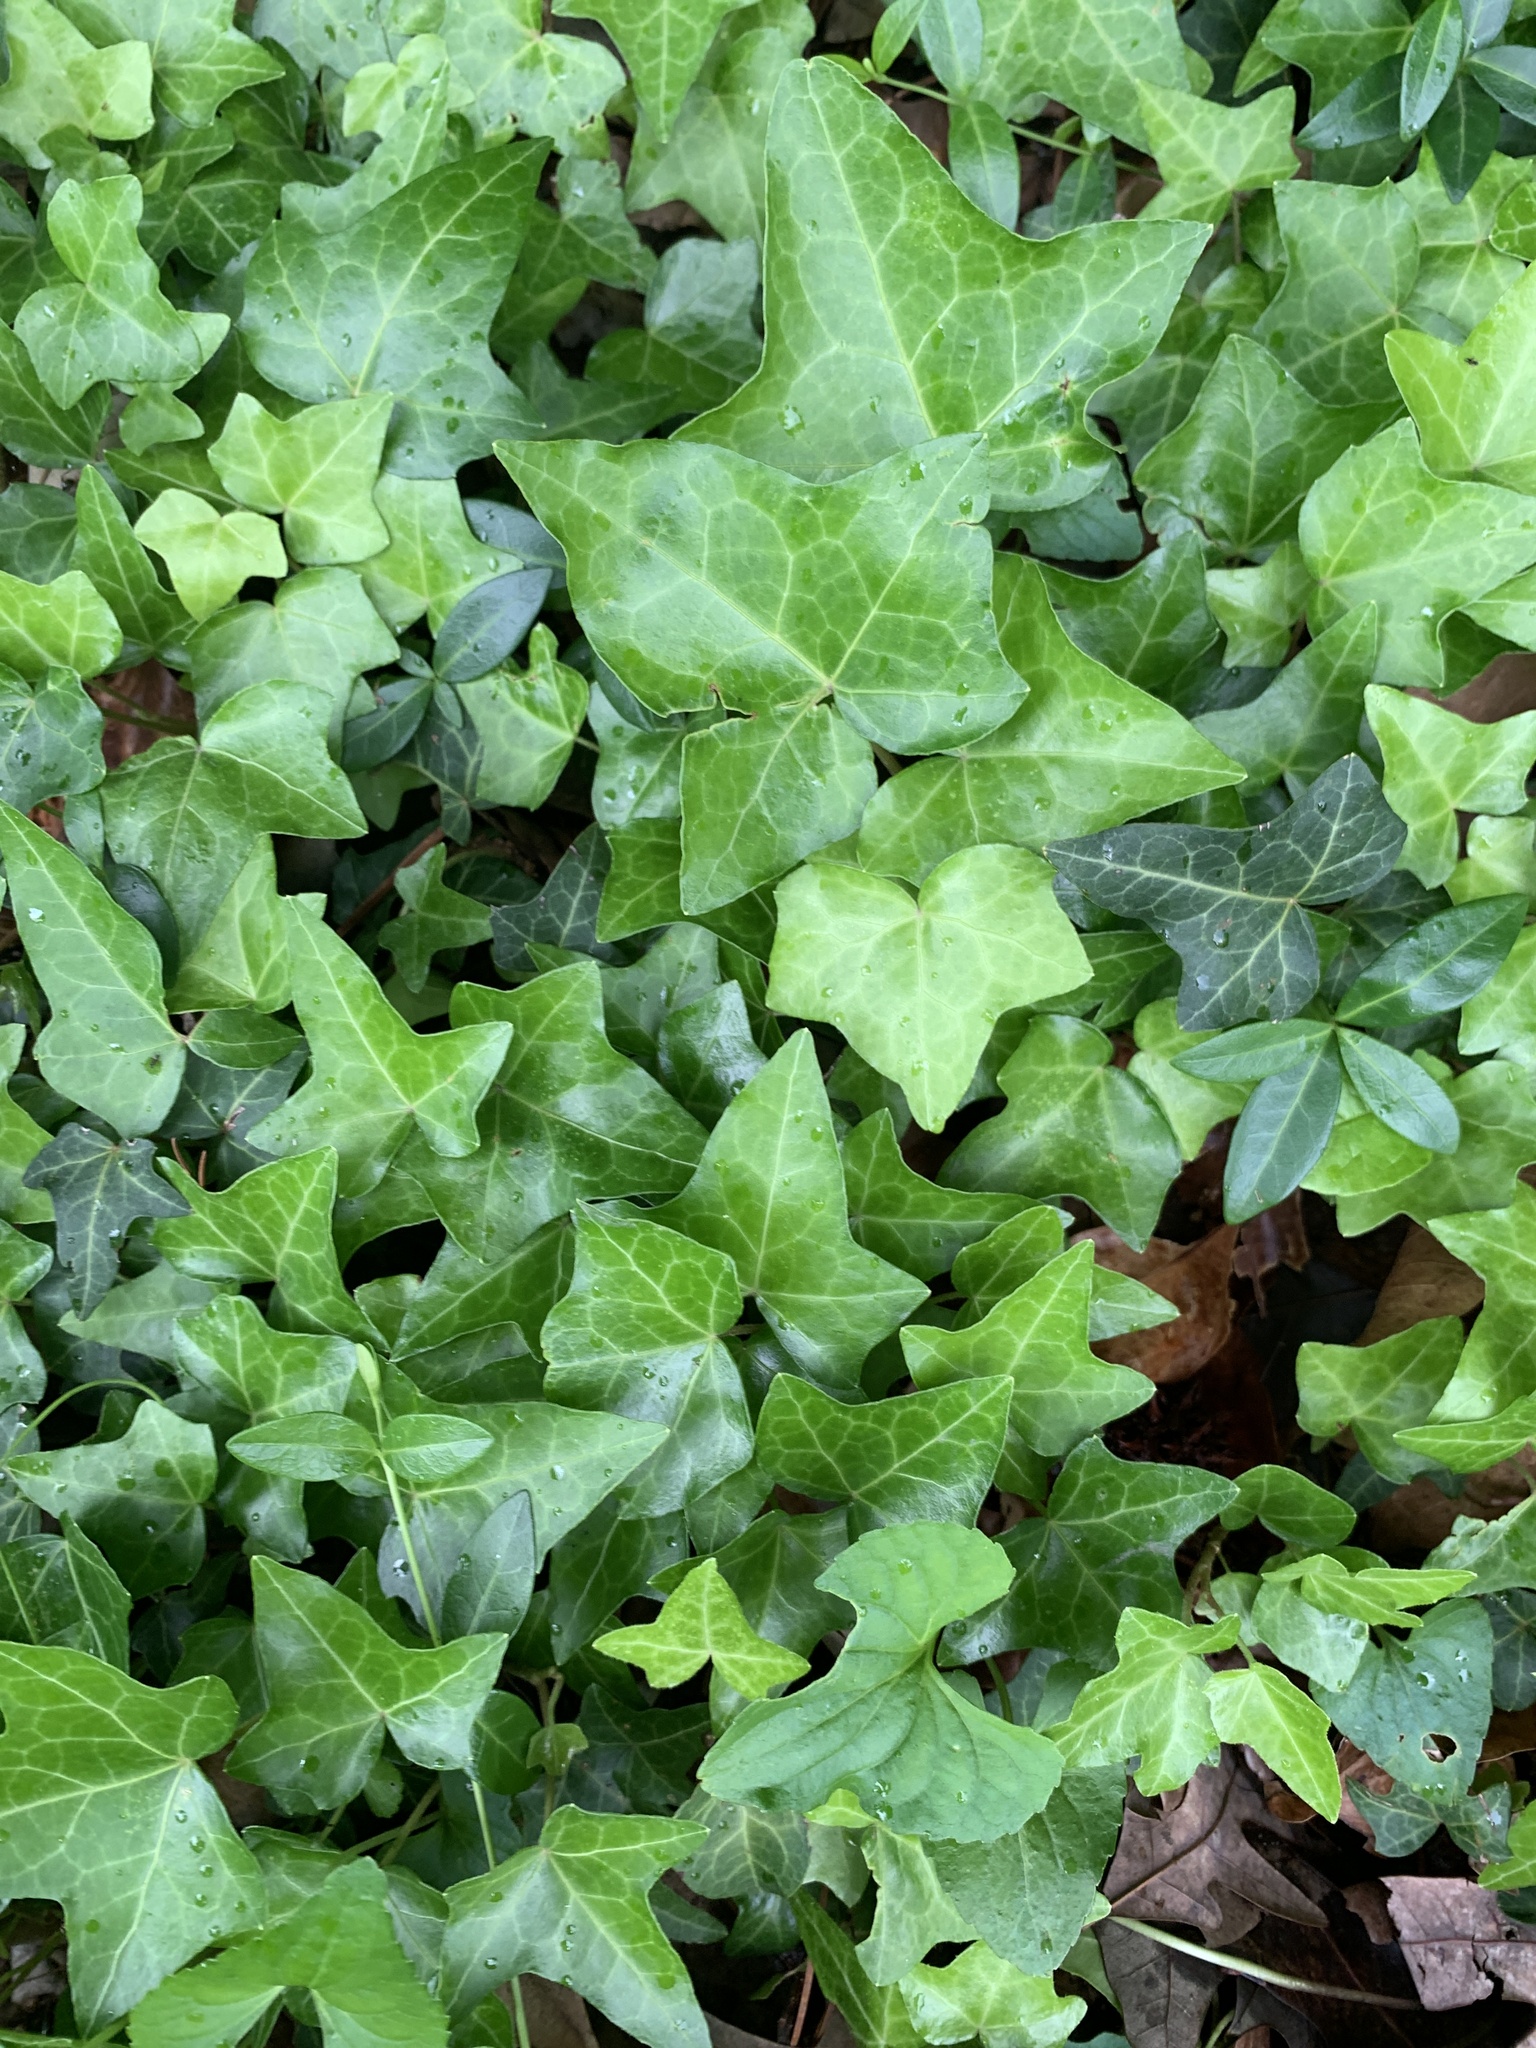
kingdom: Plantae
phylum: Tracheophyta
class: Magnoliopsida
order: Apiales
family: Araliaceae
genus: Hedera
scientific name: Hedera helix
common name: Ivy
